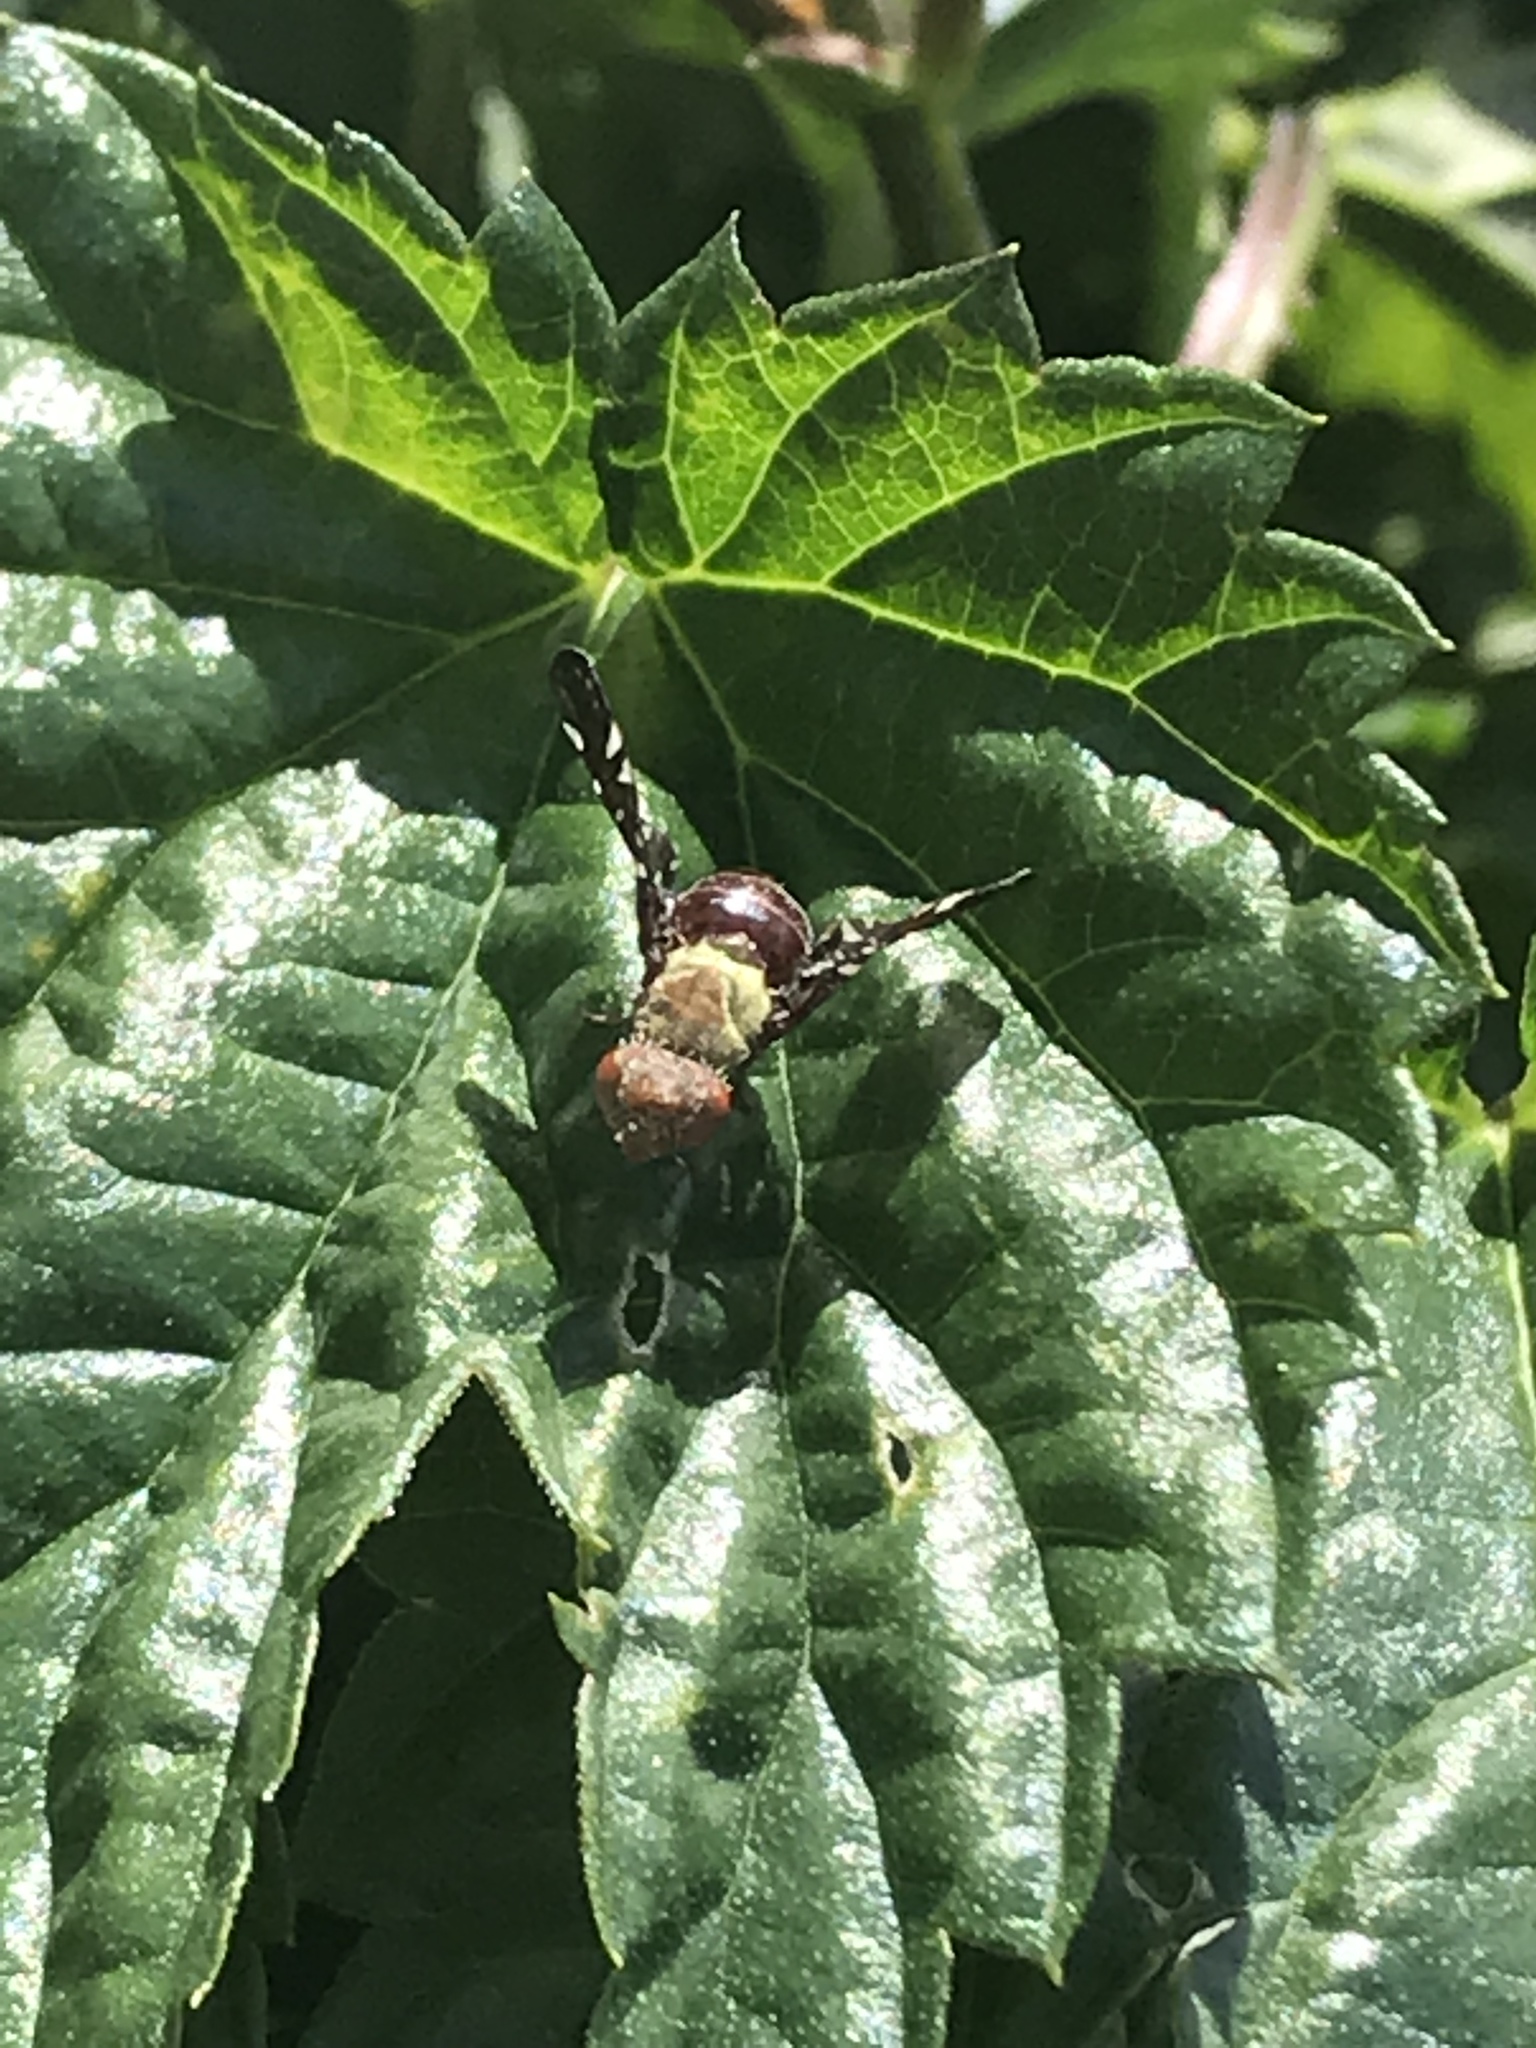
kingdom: Animalia
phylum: Arthropoda
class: Insecta
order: Diptera
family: Tephritidae
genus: Aciurina
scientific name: Aciurina
